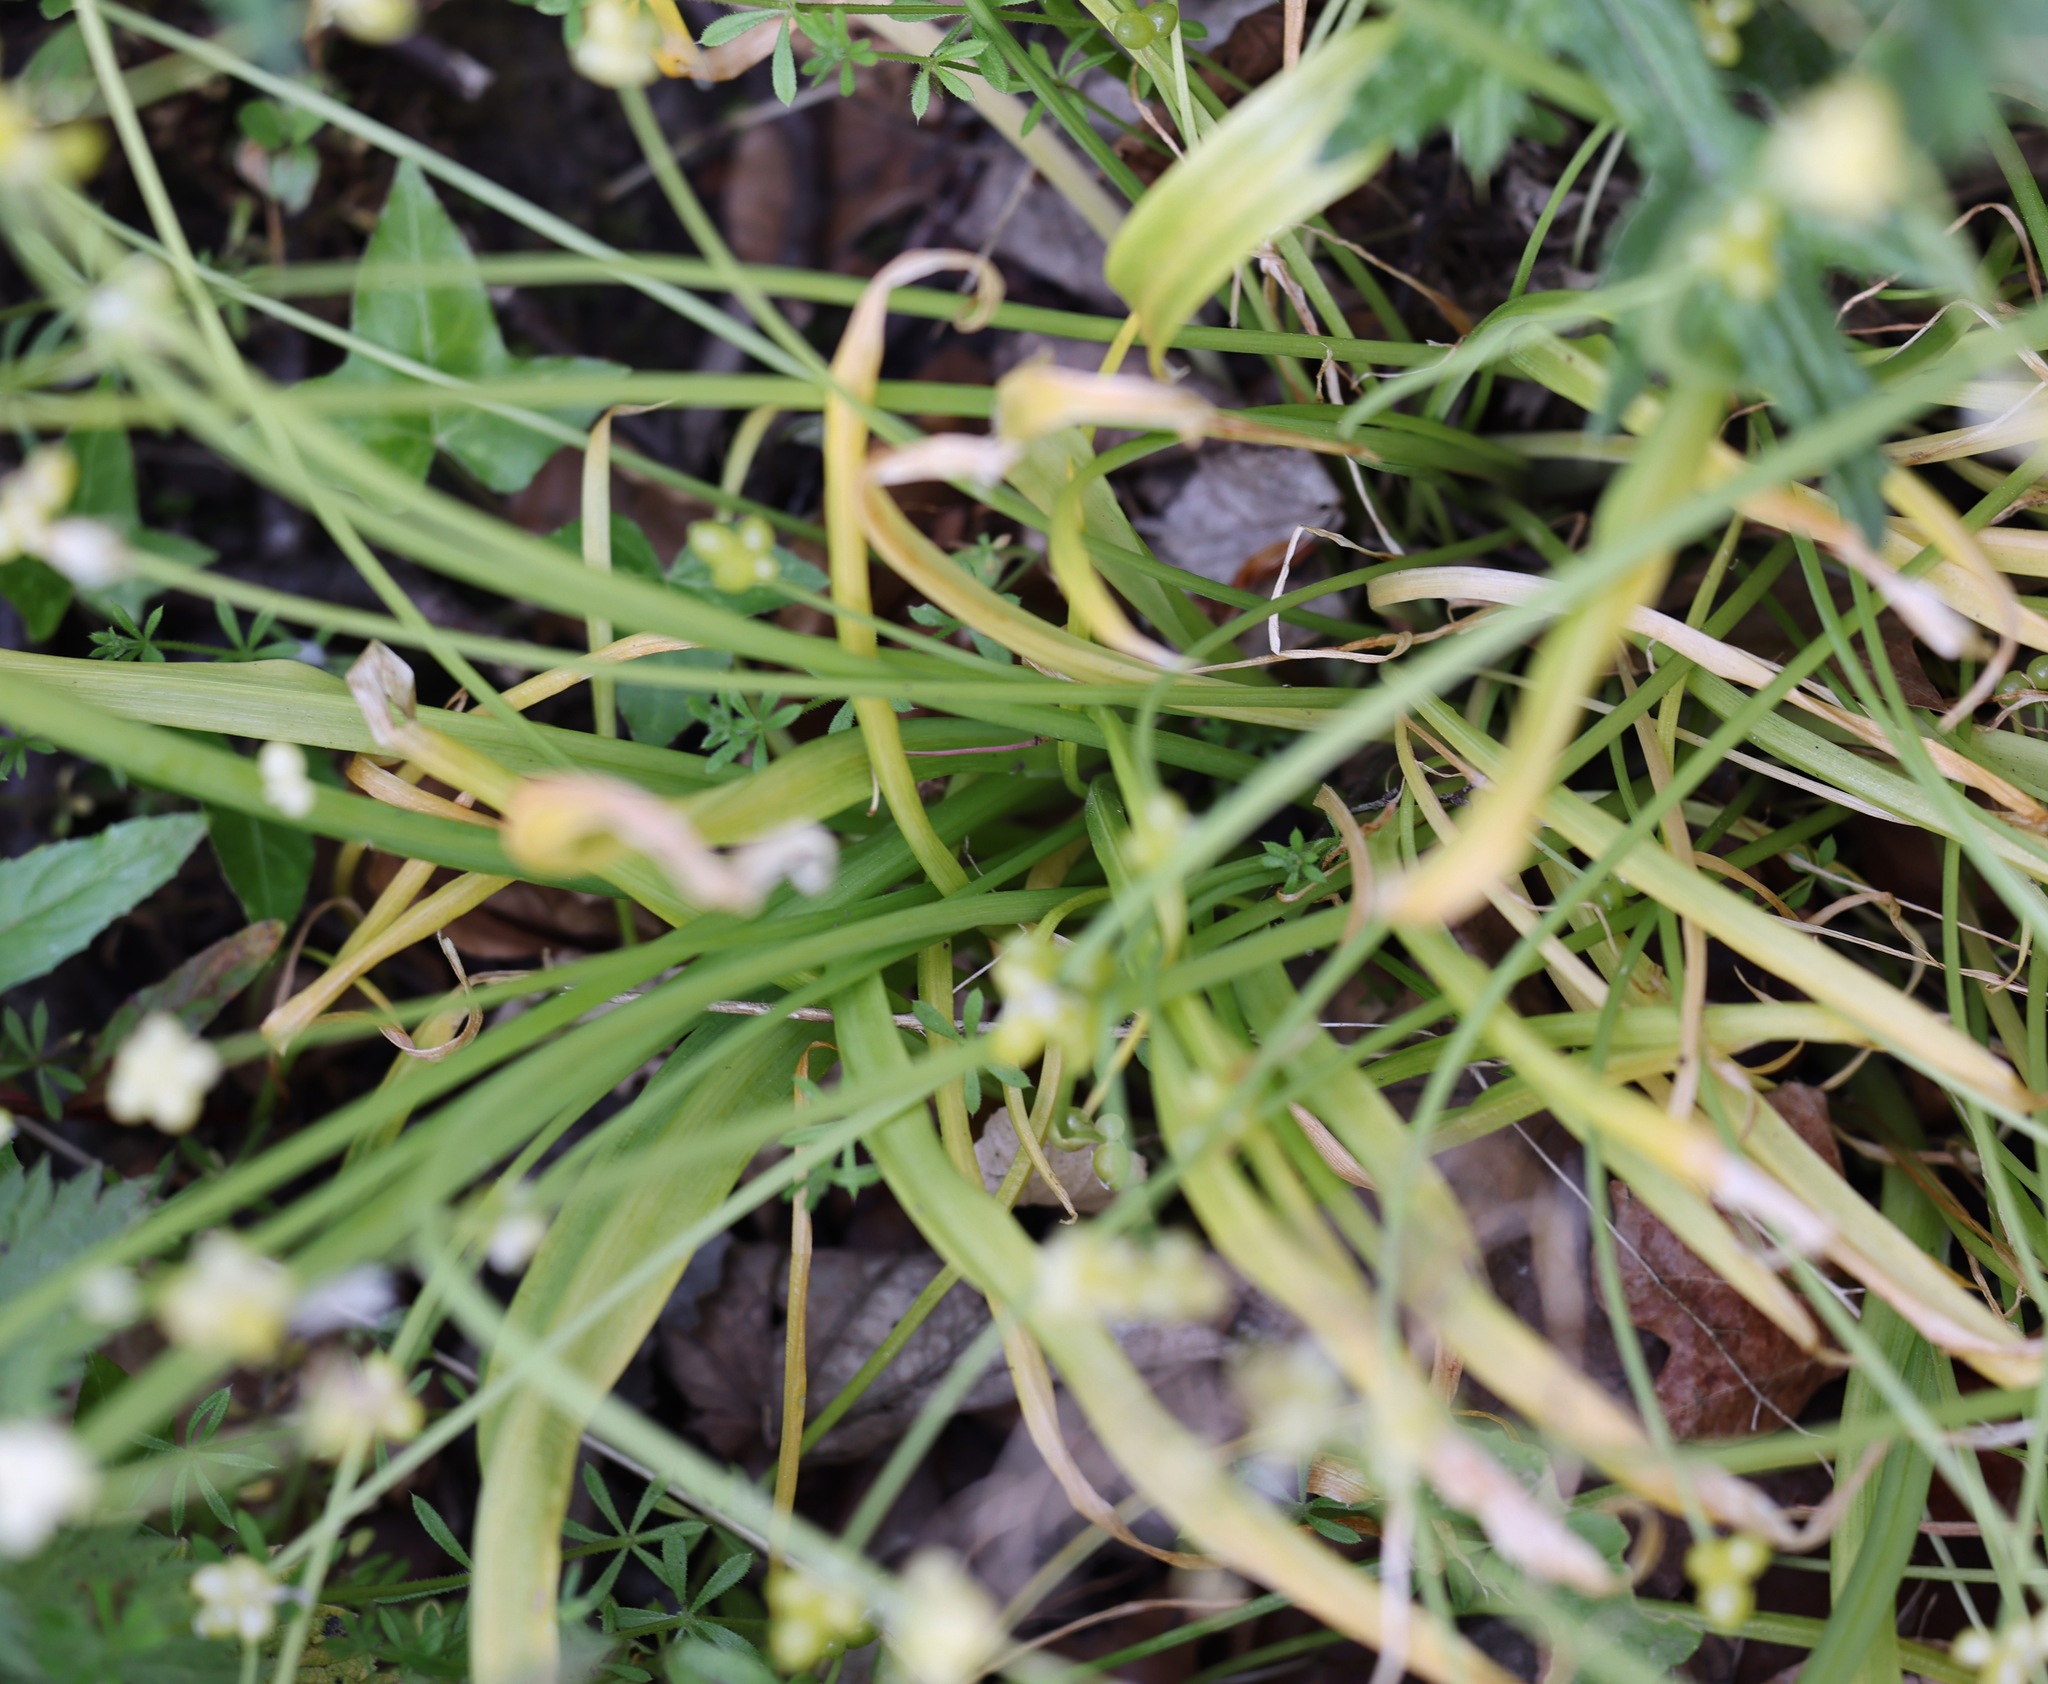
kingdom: Plantae
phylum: Tracheophyta
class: Liliopsida
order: Asparagales
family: Amaryllidaceae
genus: Allium
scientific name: Allium paradoxum
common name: Few-flowered garlic
